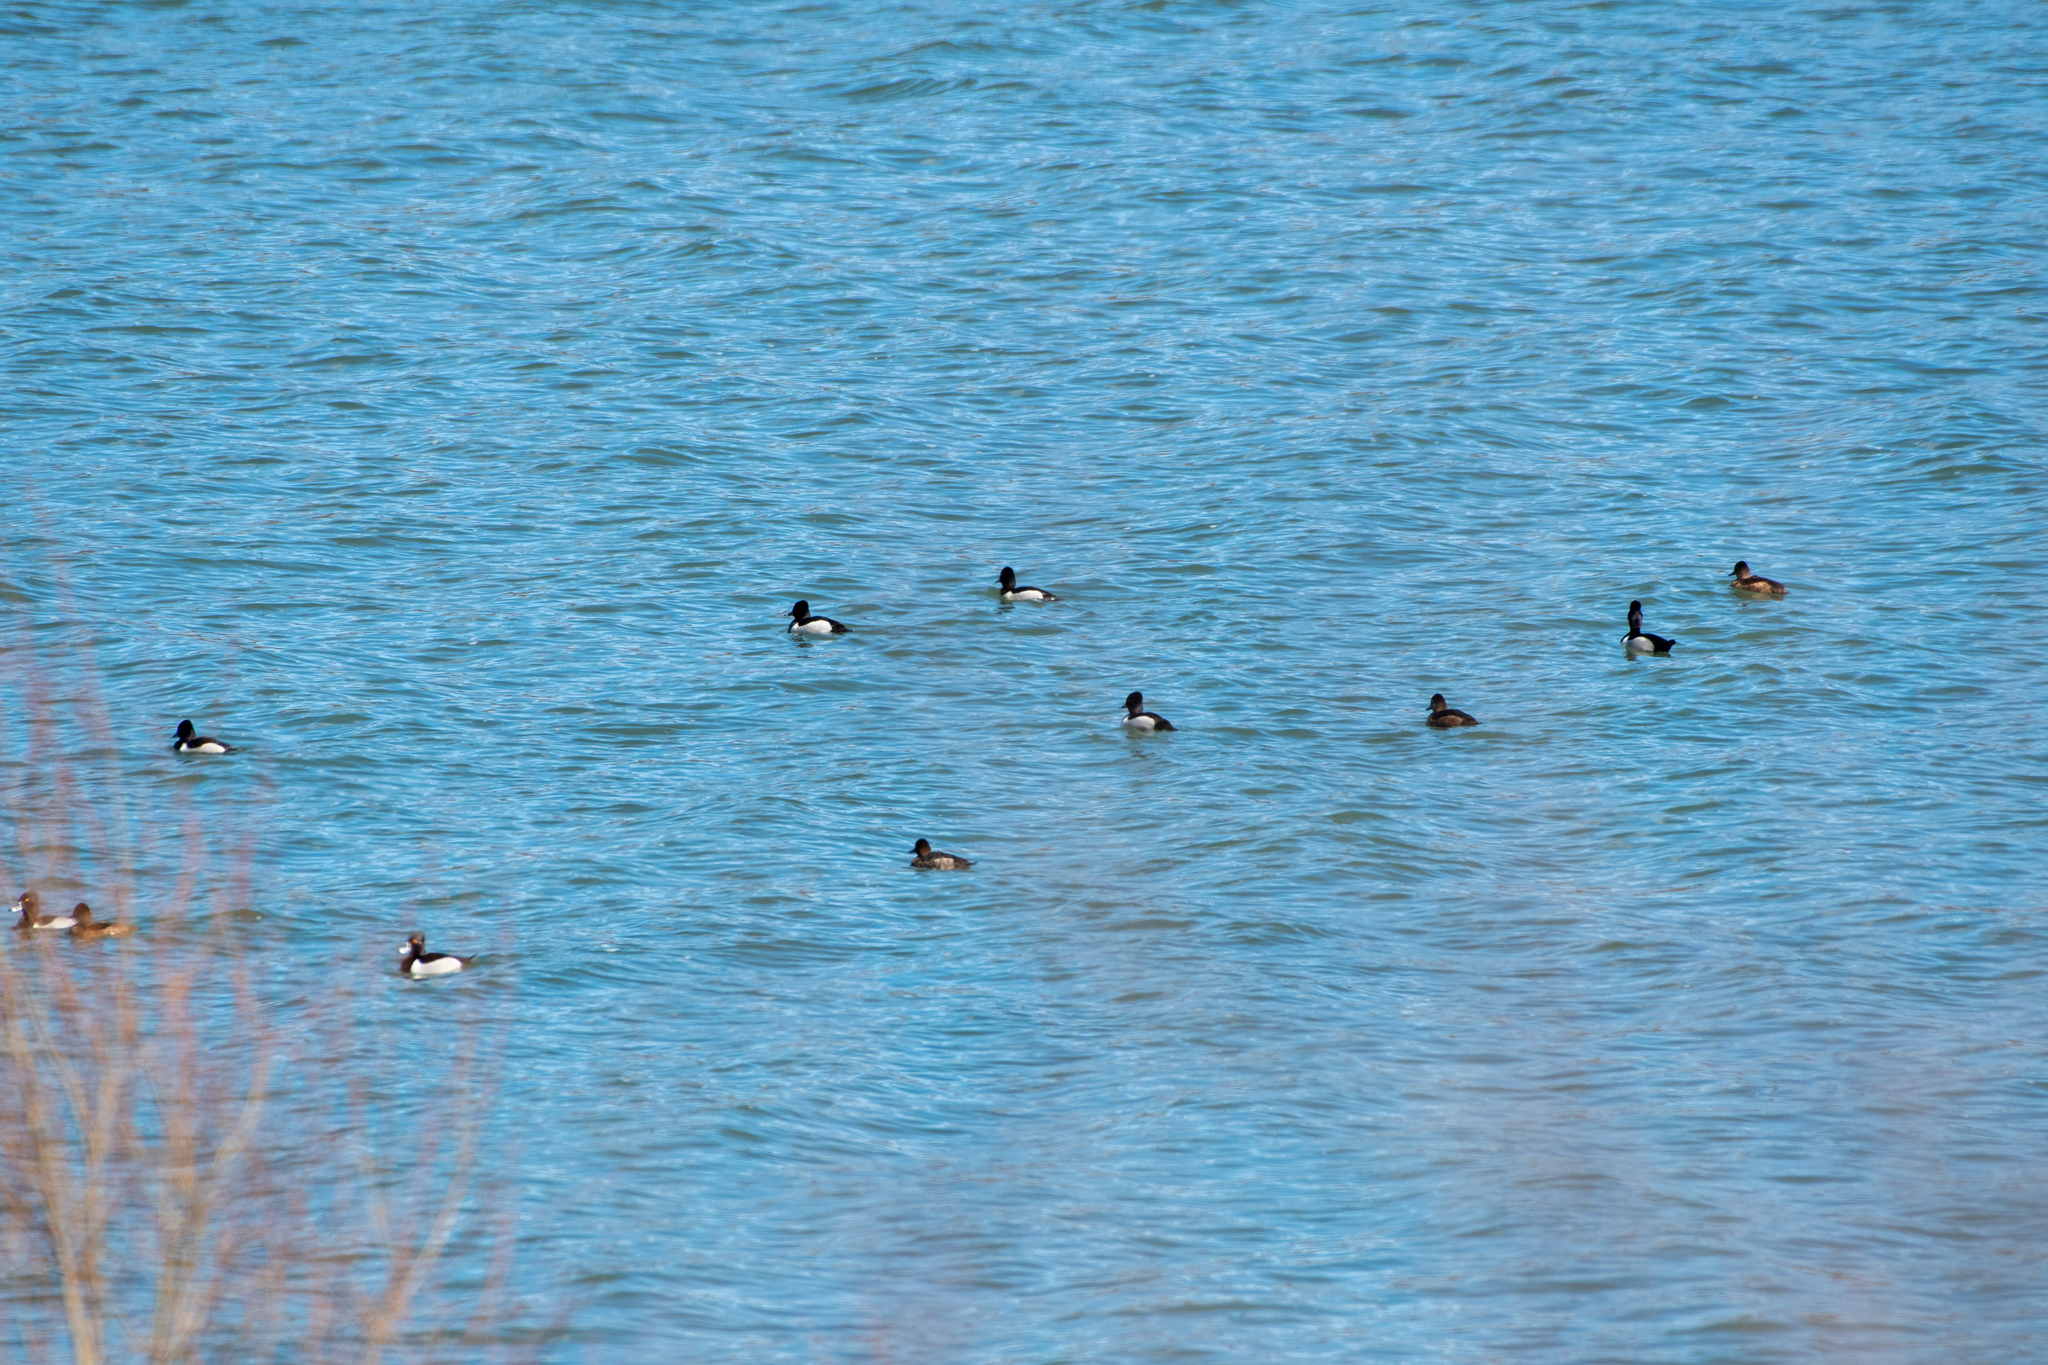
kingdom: Animalia
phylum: Chordata
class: Aves
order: Anseriformes
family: Anatidae
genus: Aythya
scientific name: Aythya collaris
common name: Ring-necked duck
